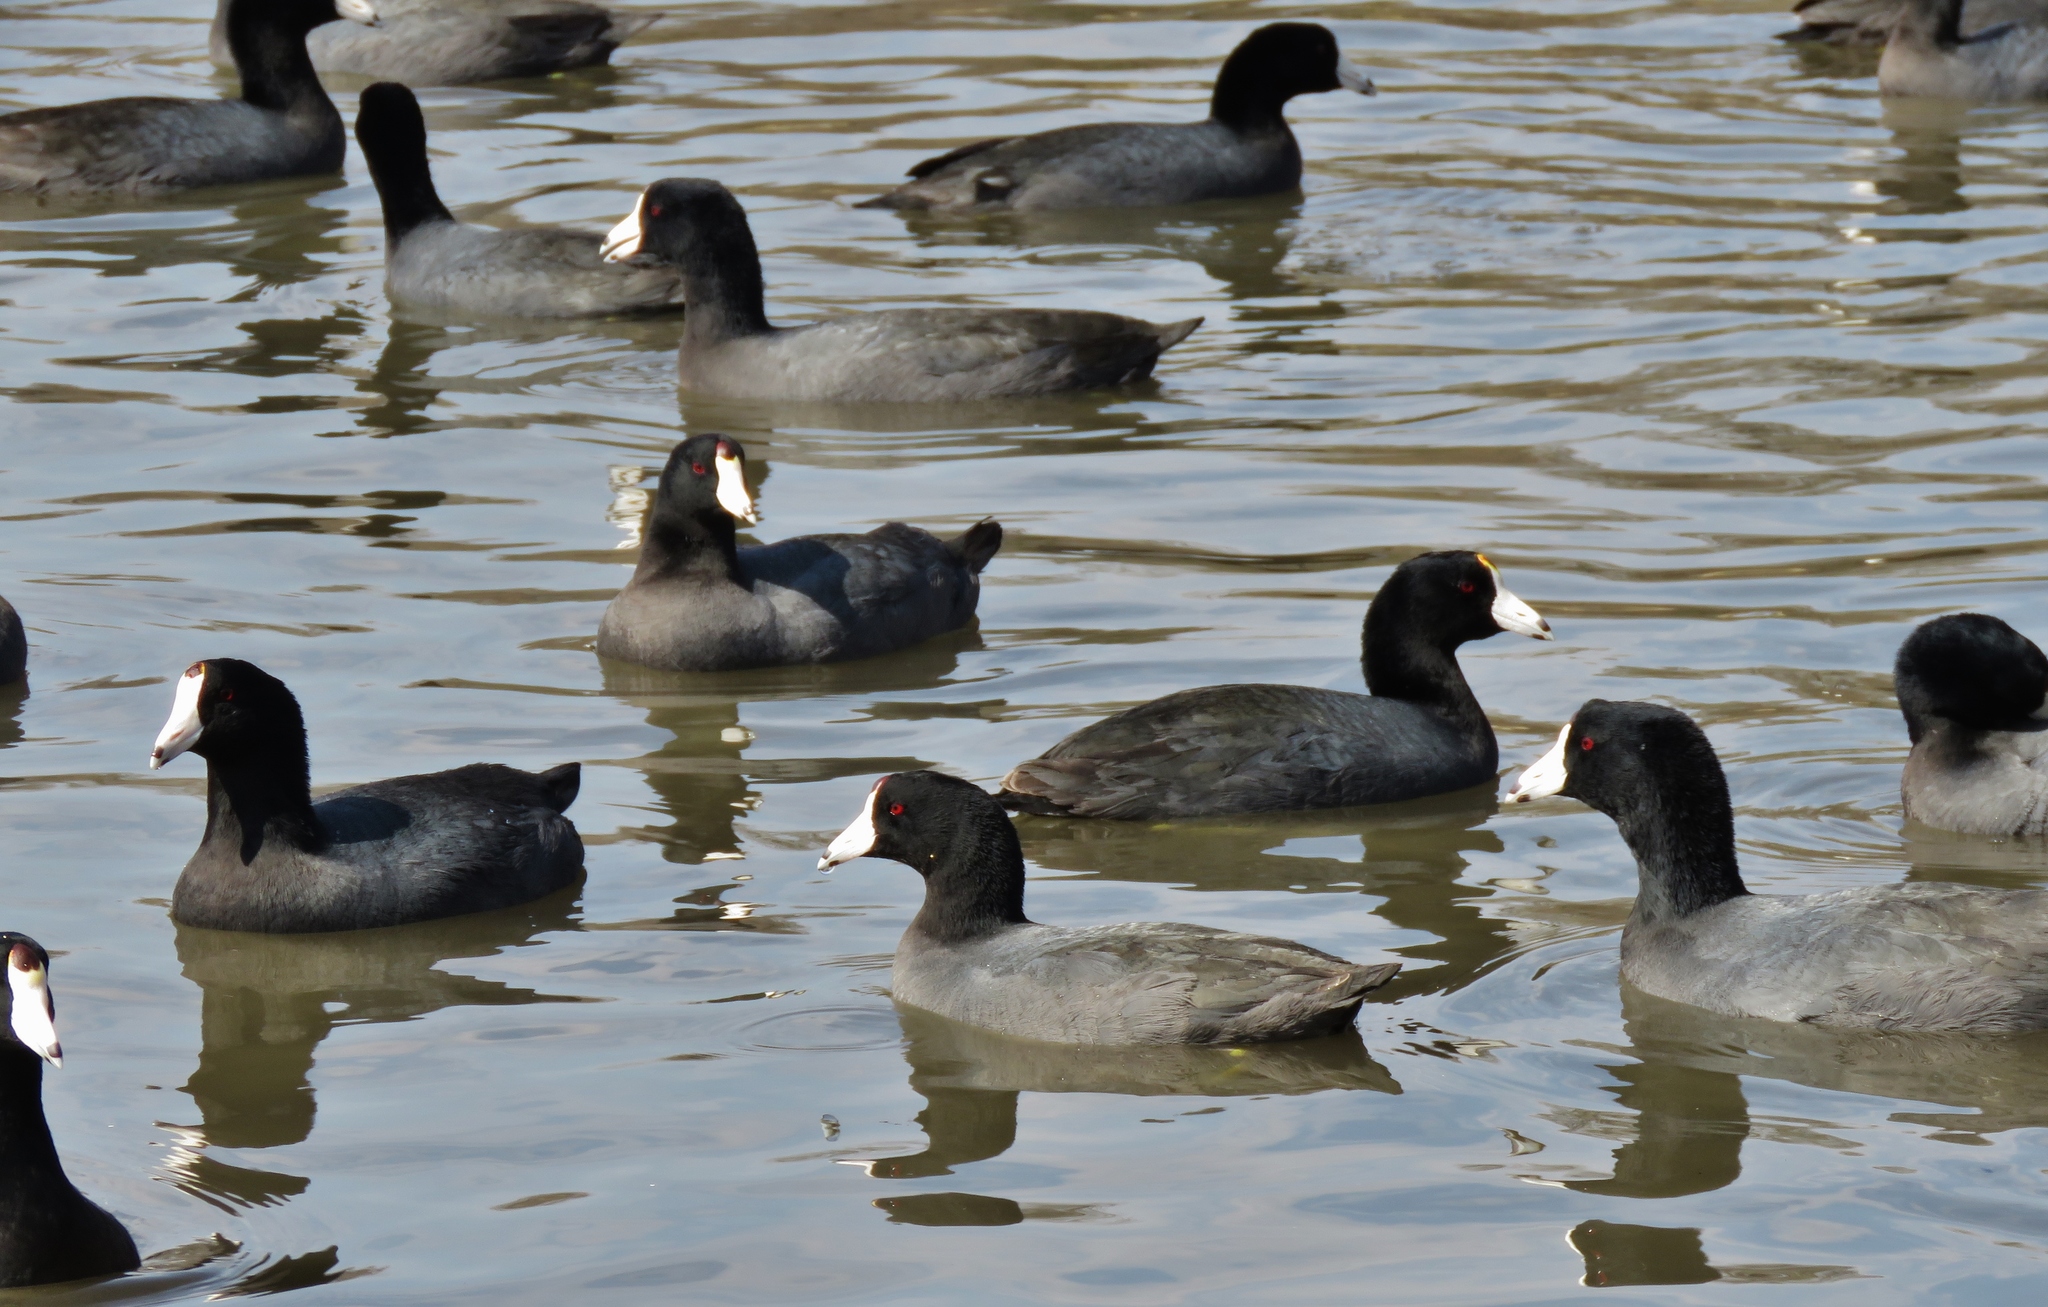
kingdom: Animalia
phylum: Chordata
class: Aves
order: Gruiformes
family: Rallidae
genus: Fulica
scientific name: Fulica americana
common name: American coot
